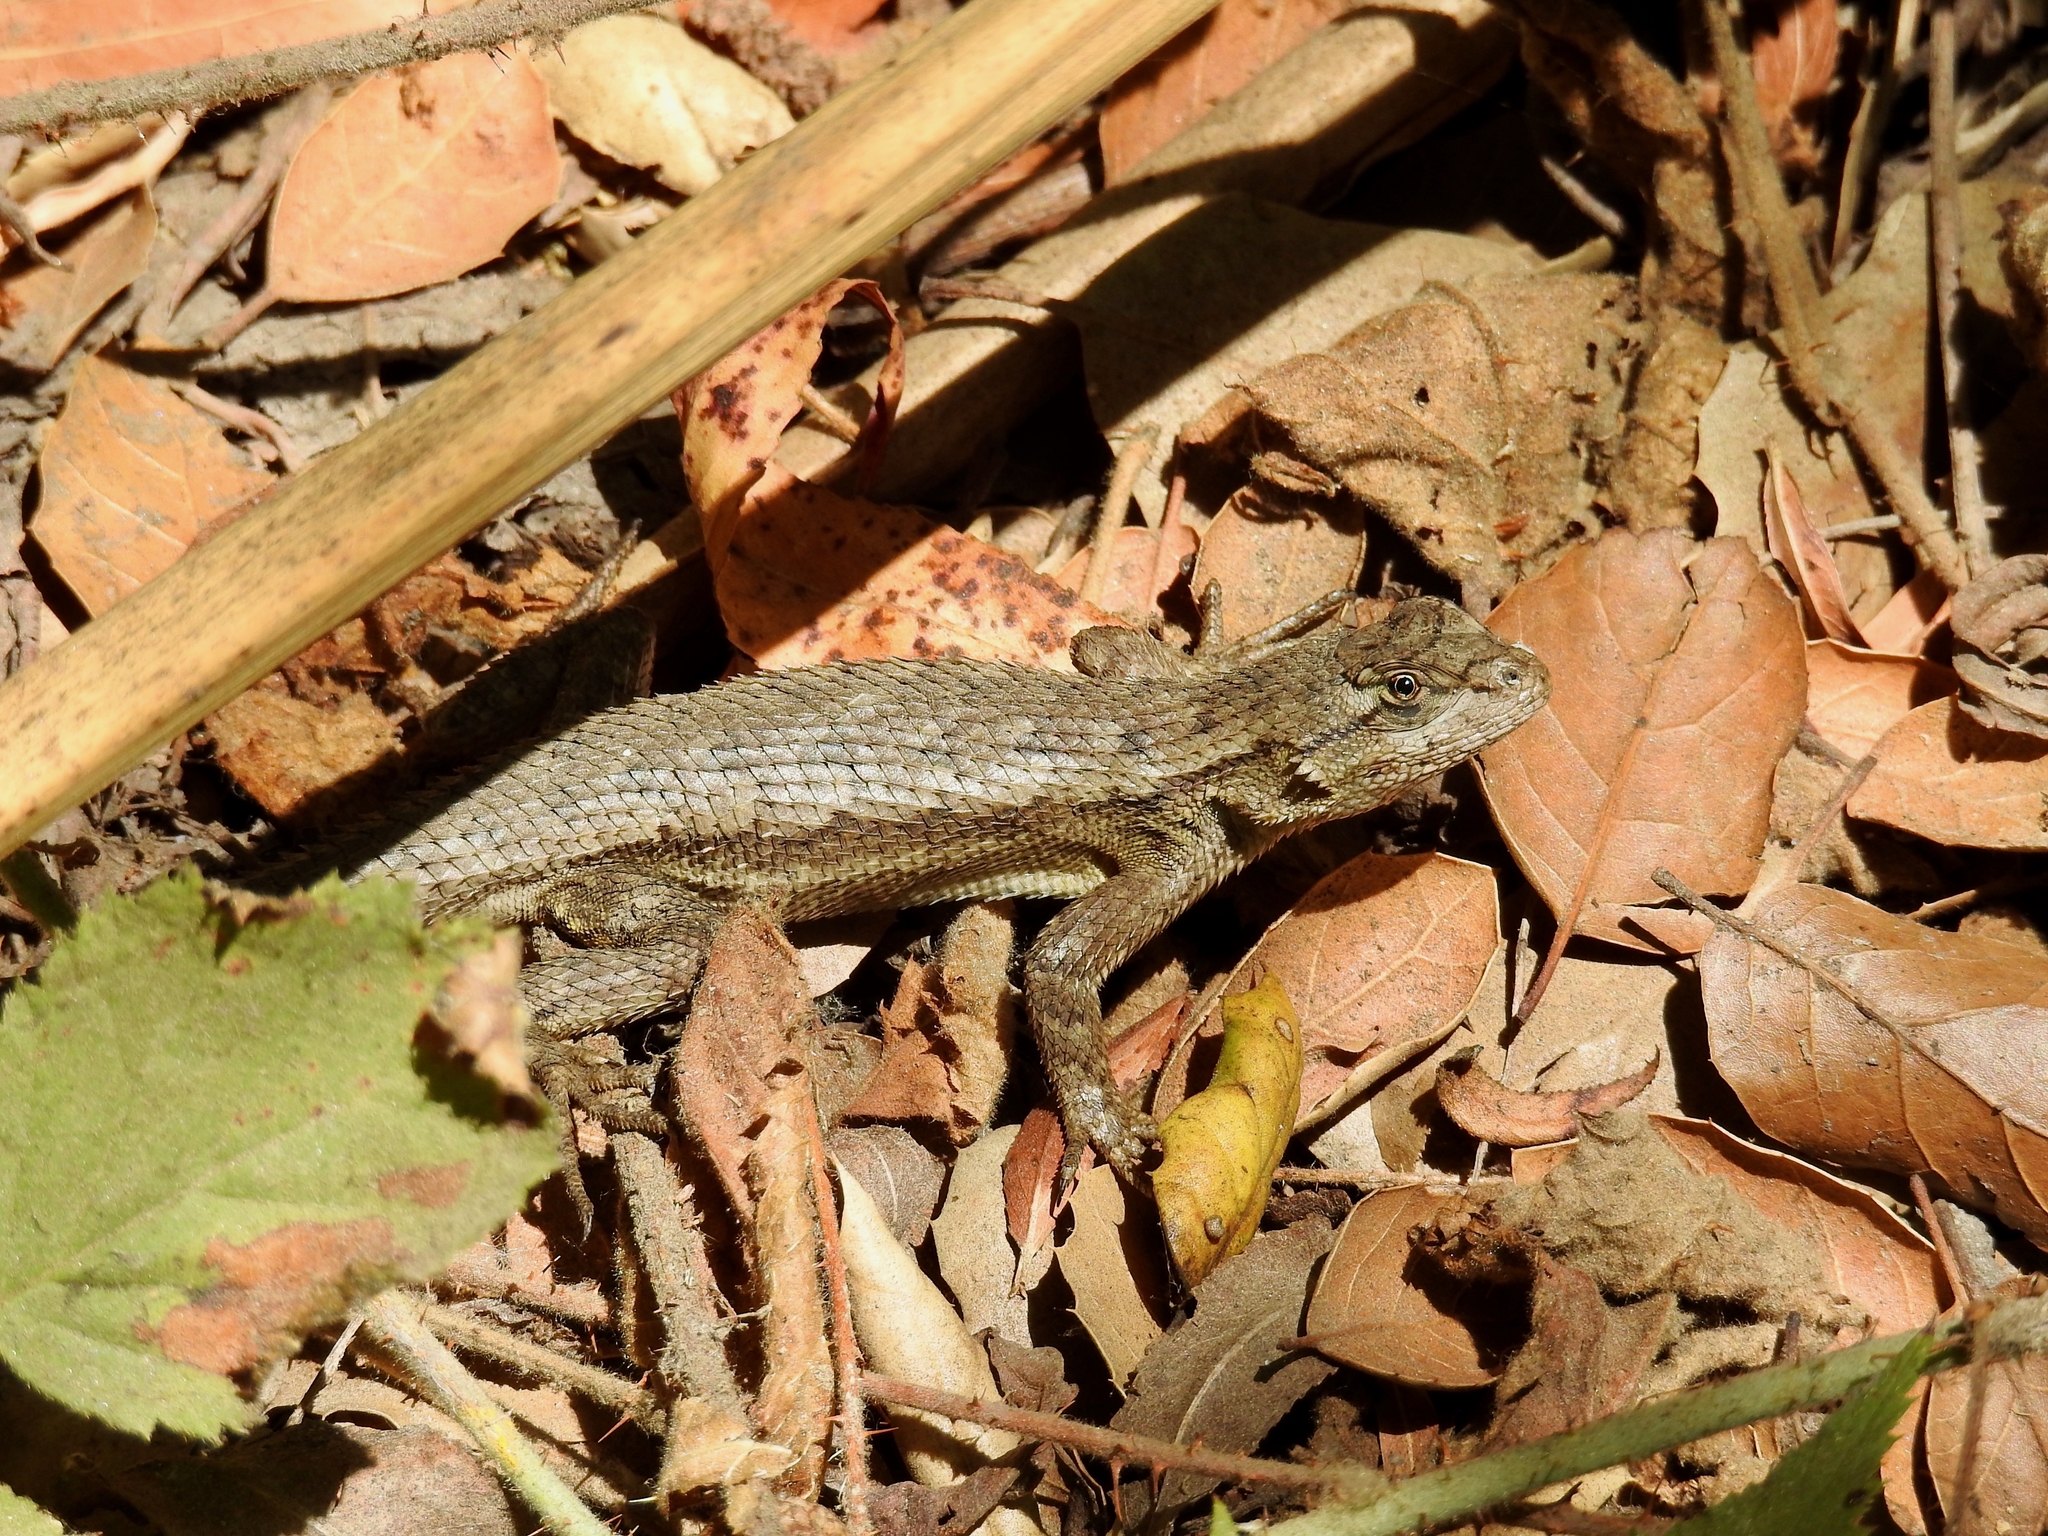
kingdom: Animalia
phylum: Chordata
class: Squamata
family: Phrynosomatidae
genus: Sceloporus
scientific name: Sceloporus occidentalis
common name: Western fence lizard
